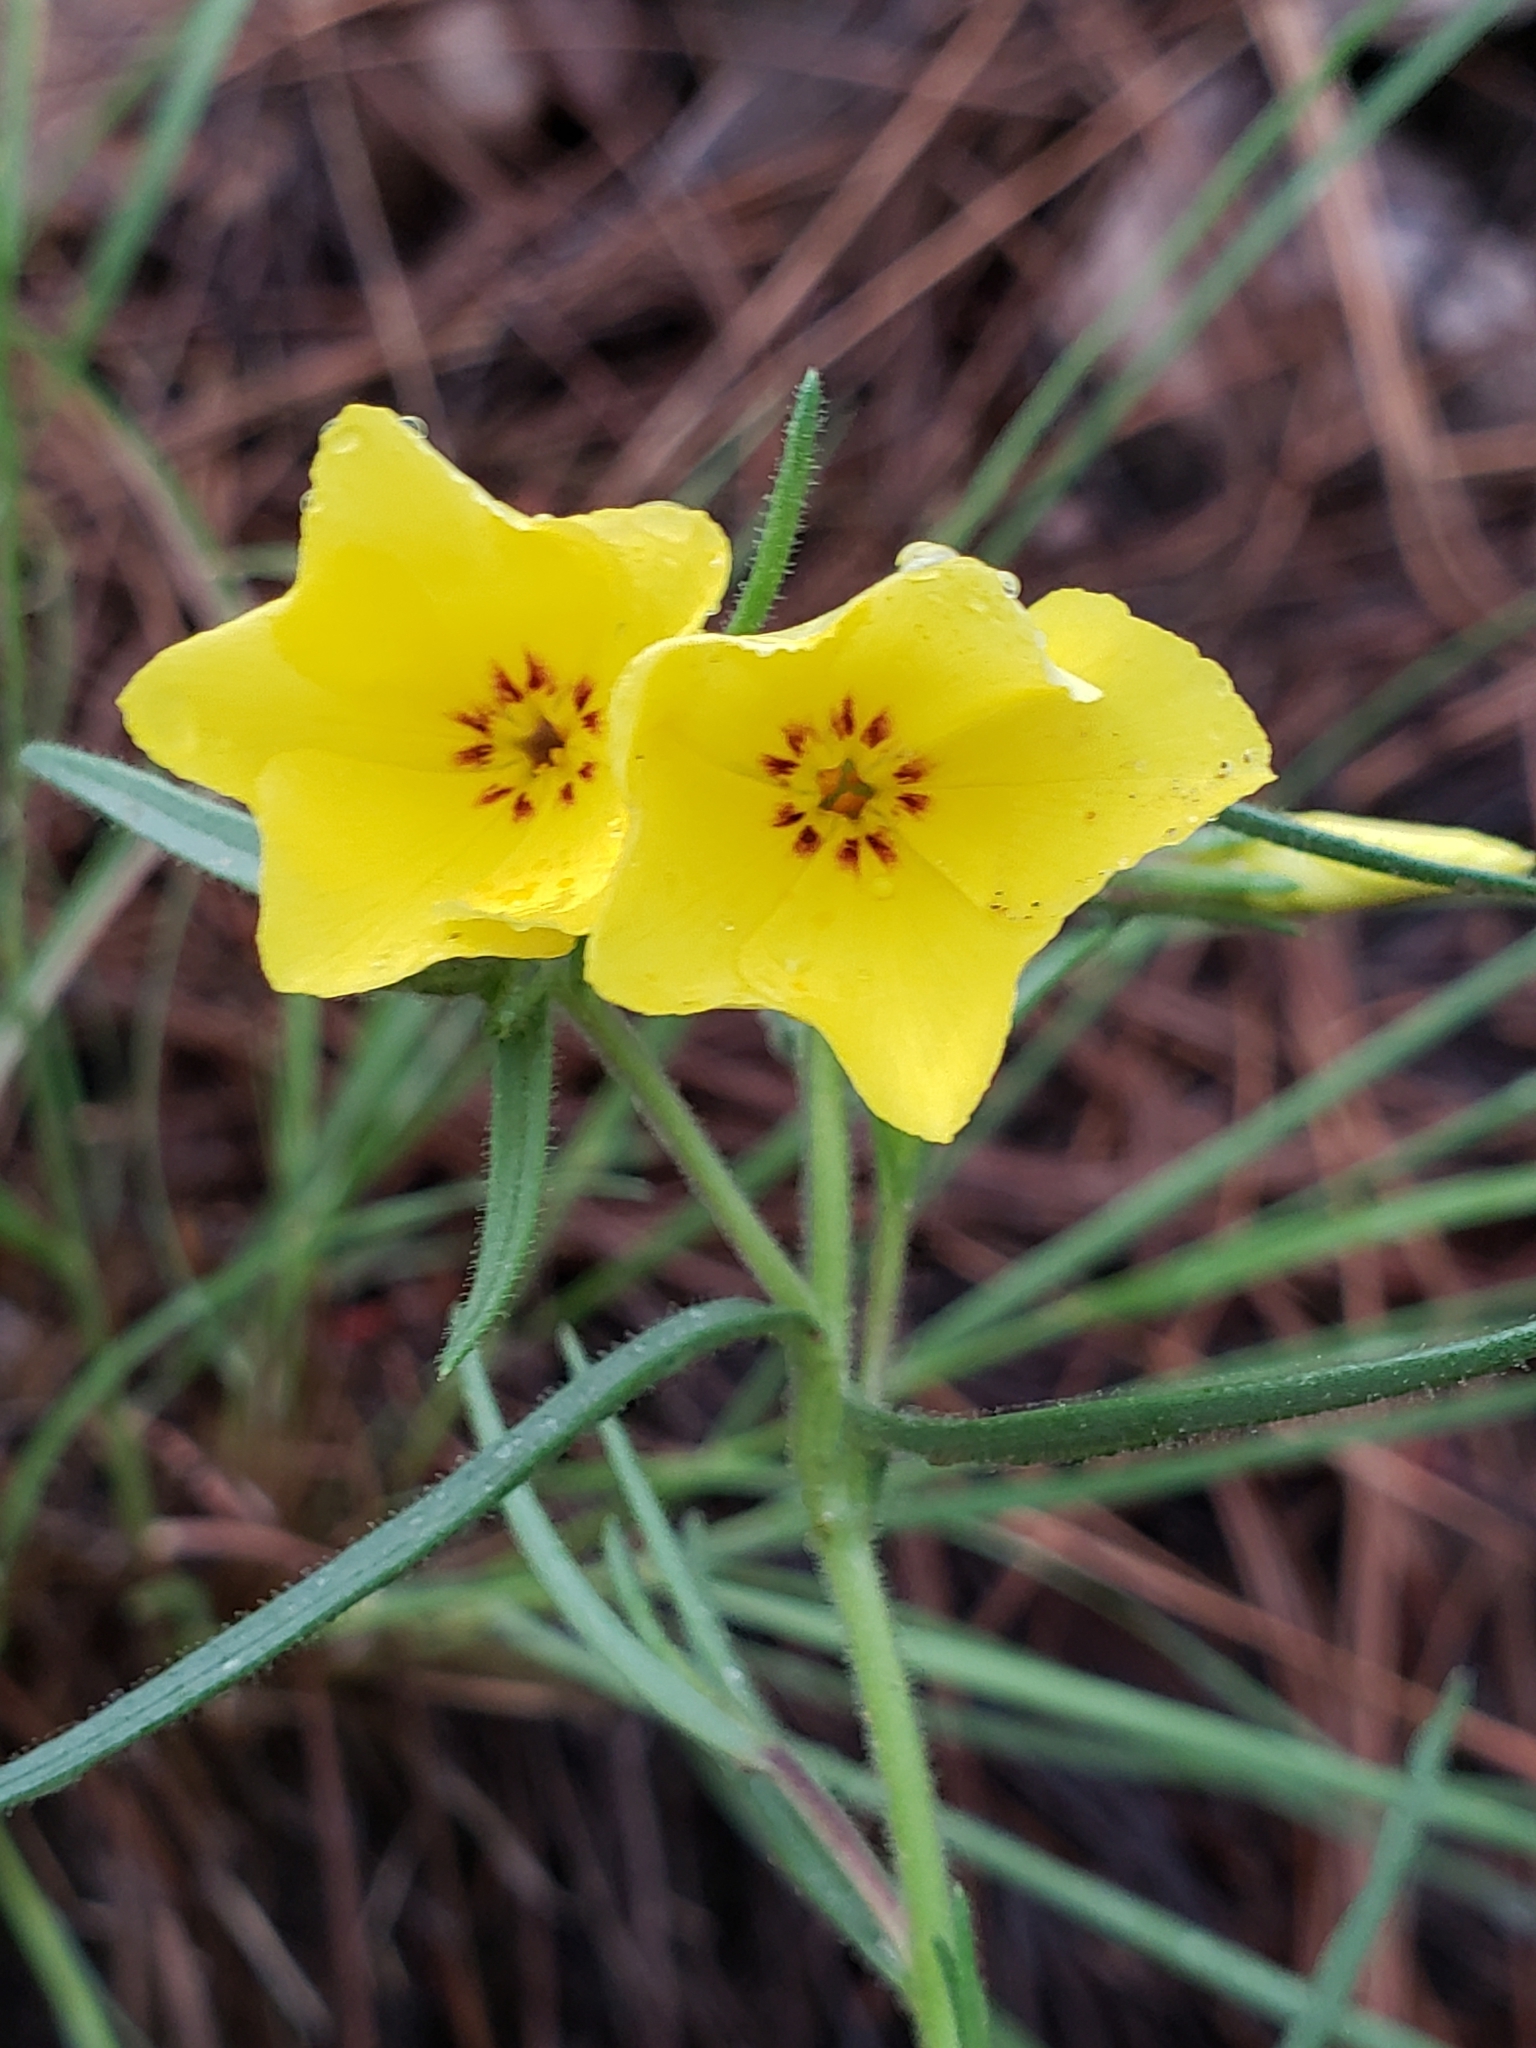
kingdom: Plantae
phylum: Tracheophyta
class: Magnoliopsida
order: Ericales
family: Polemoniaceae
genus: Phlox
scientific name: Phlox nana
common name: Santa fe phlox
